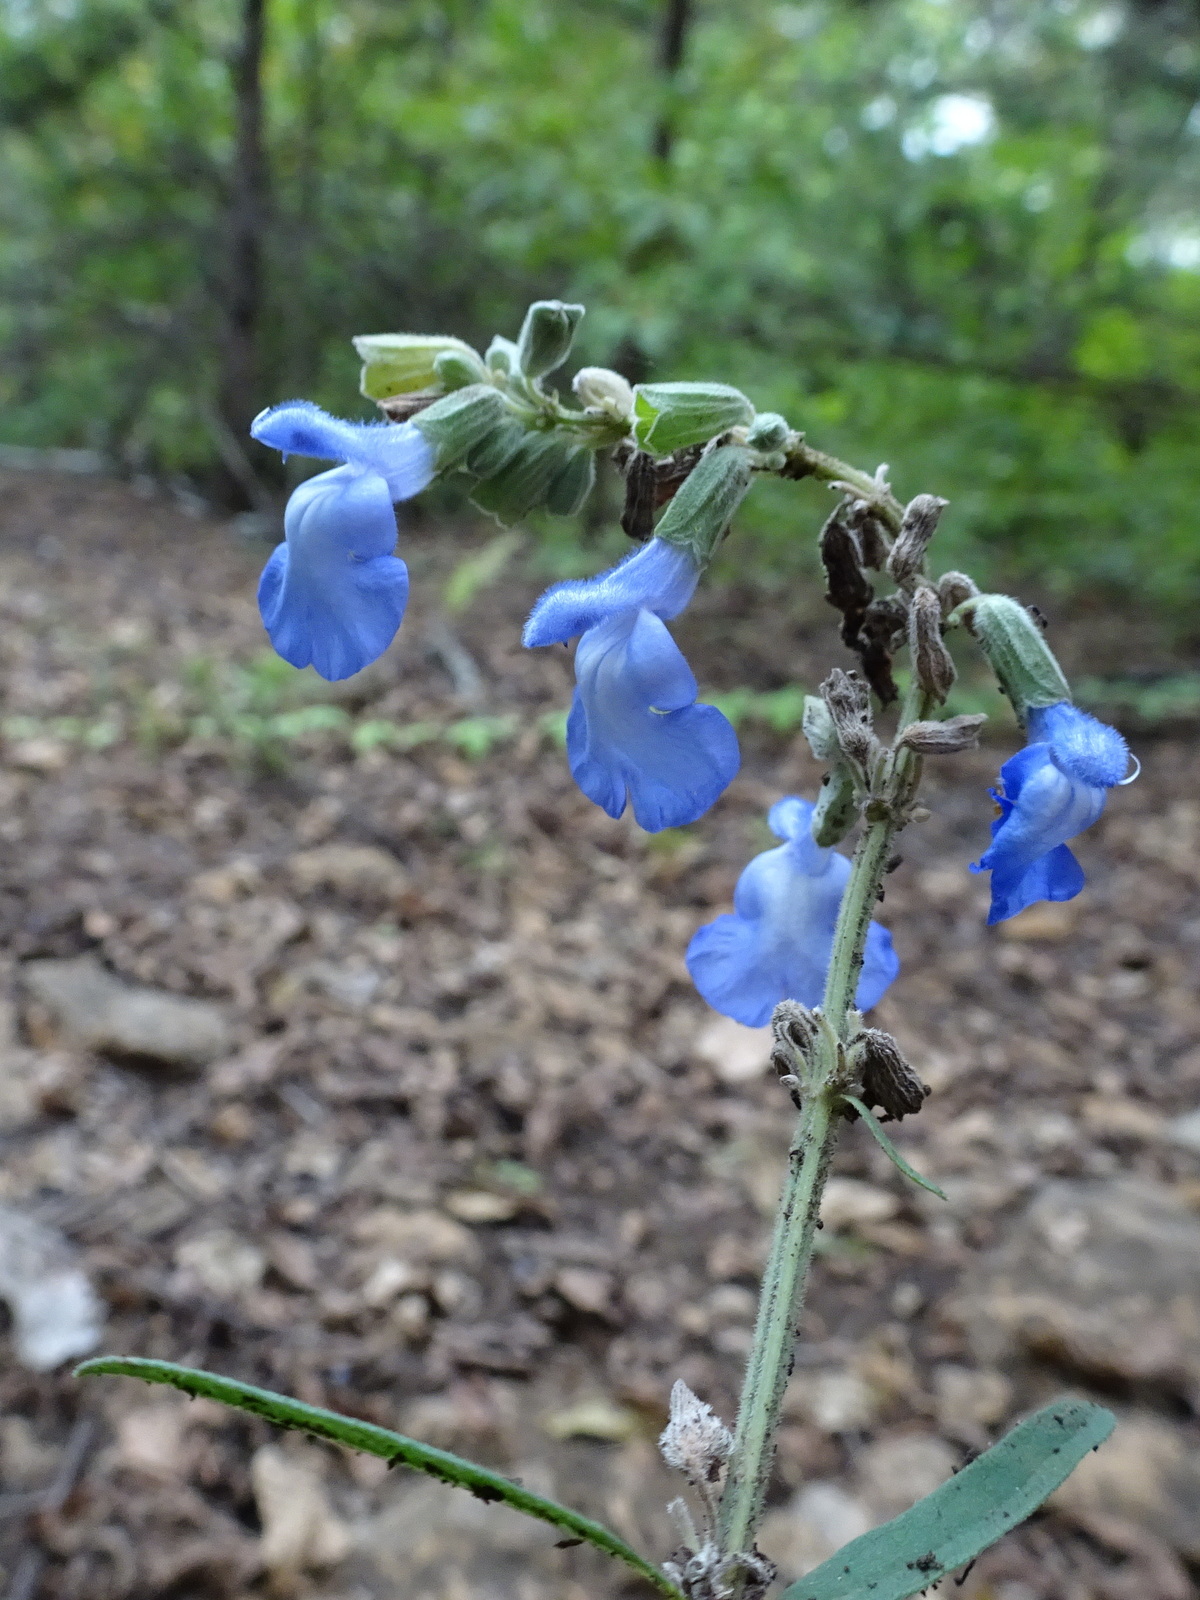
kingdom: Plantae
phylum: Tracheophyta
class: Magnoliopsida
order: Lamiales
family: Lamiaceae
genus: Salvia
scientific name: Salvia azurea
